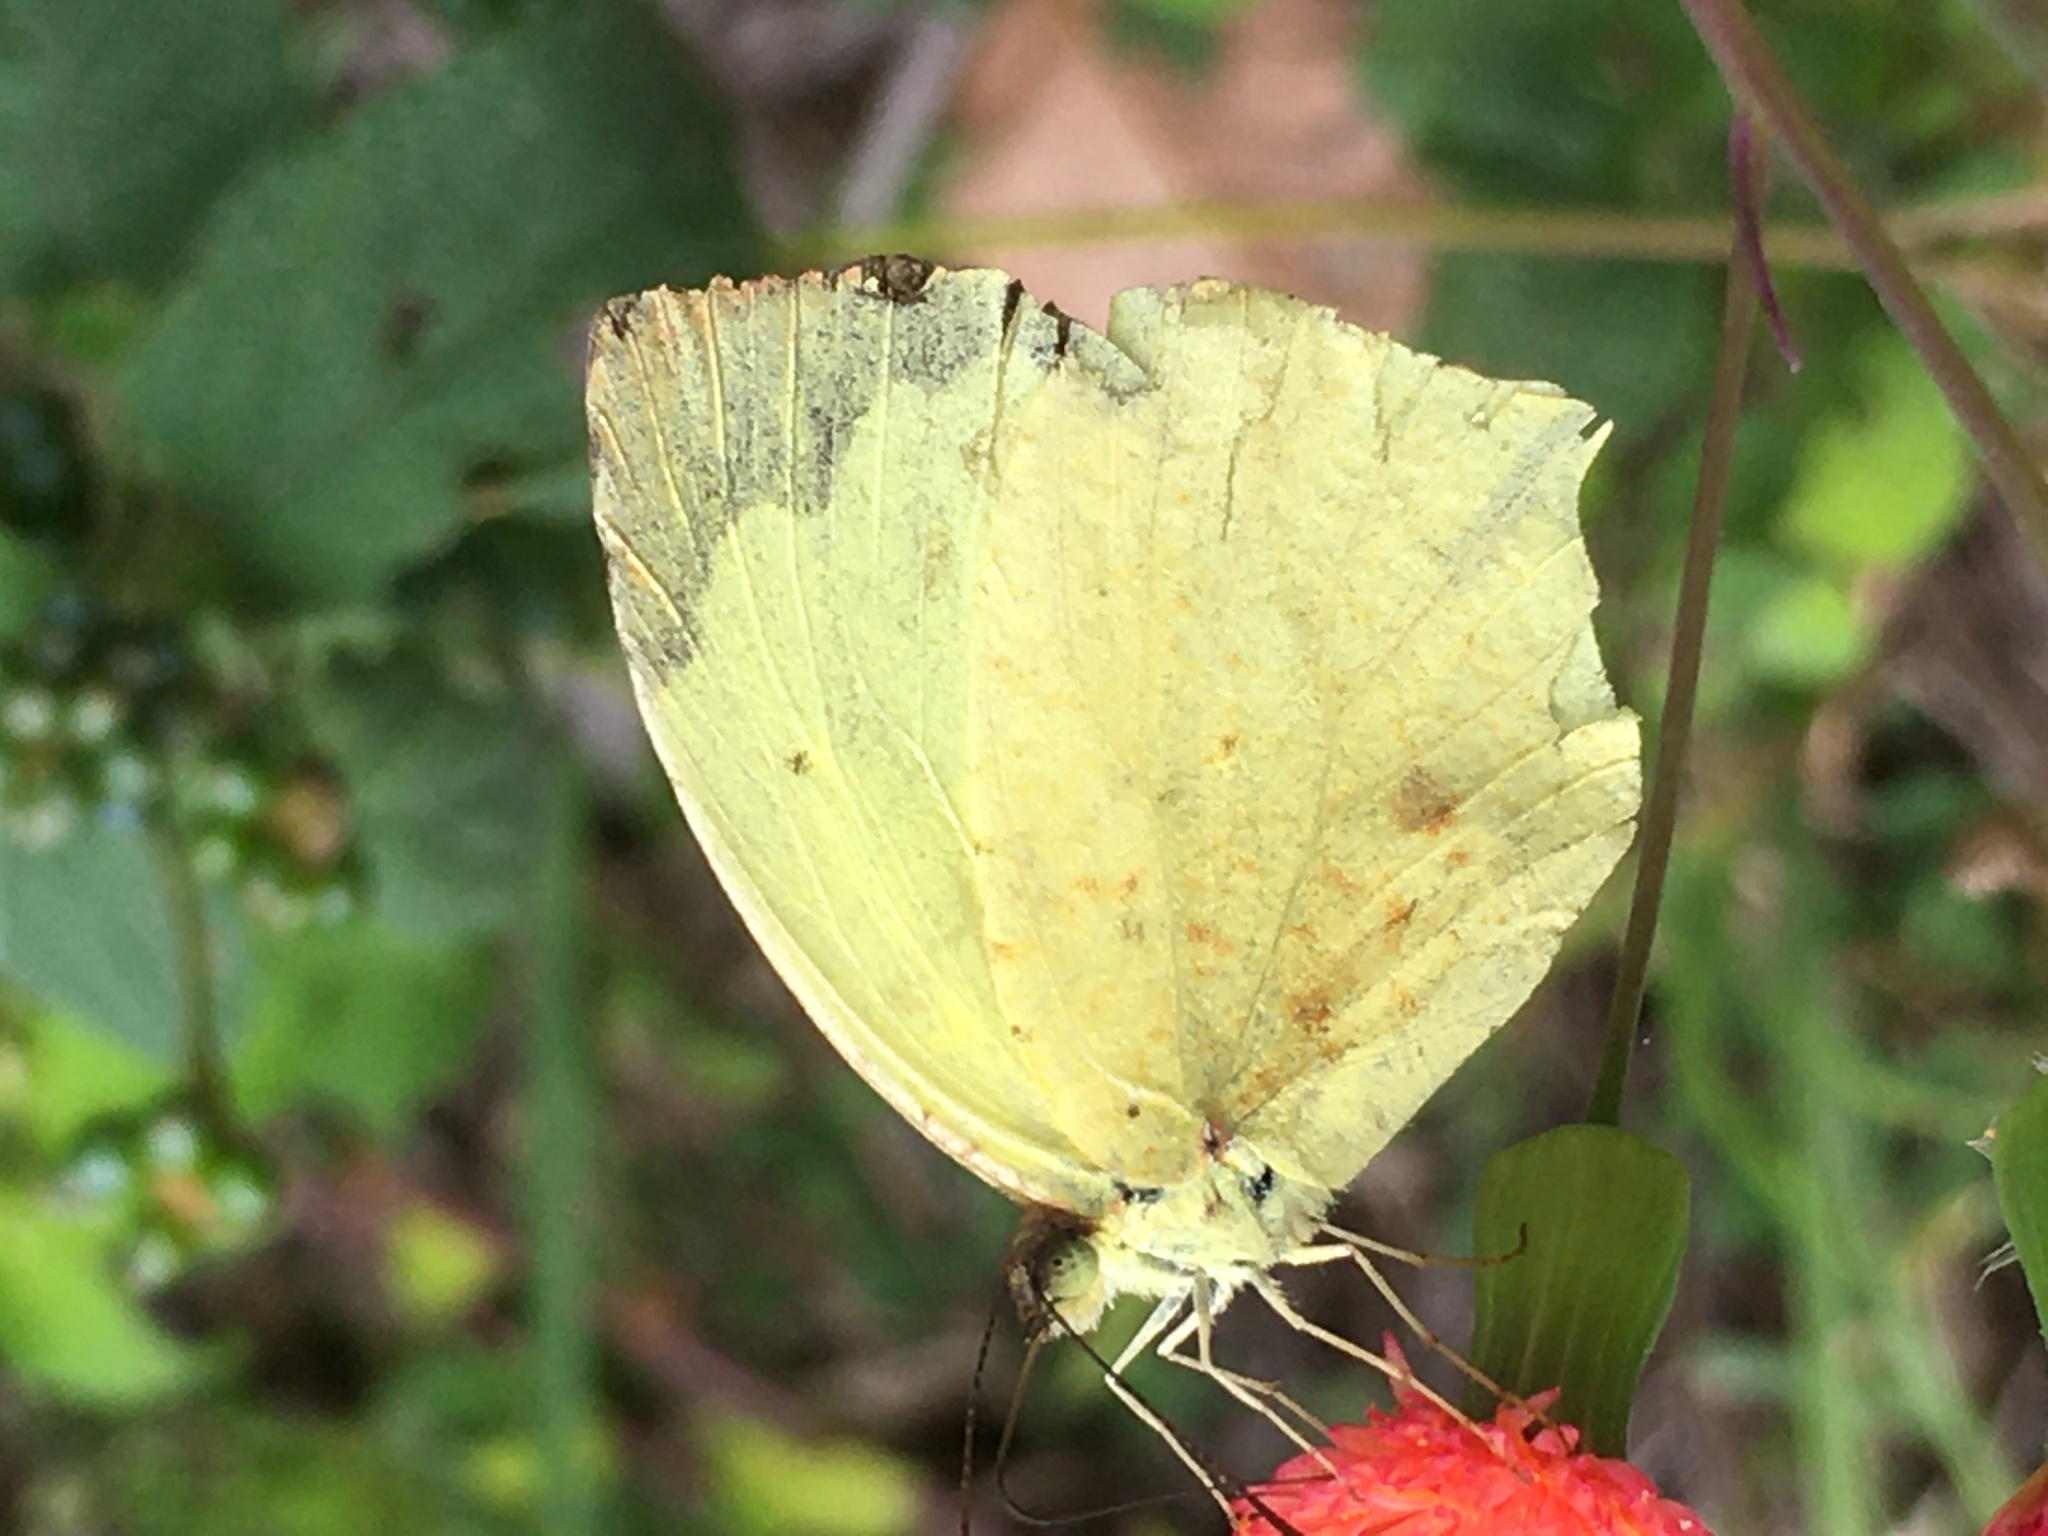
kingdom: Animalia
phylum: Arthropoda
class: Insecta
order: Lepidoptera
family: Pieridae
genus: Abaeis
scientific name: Abaeis salome
